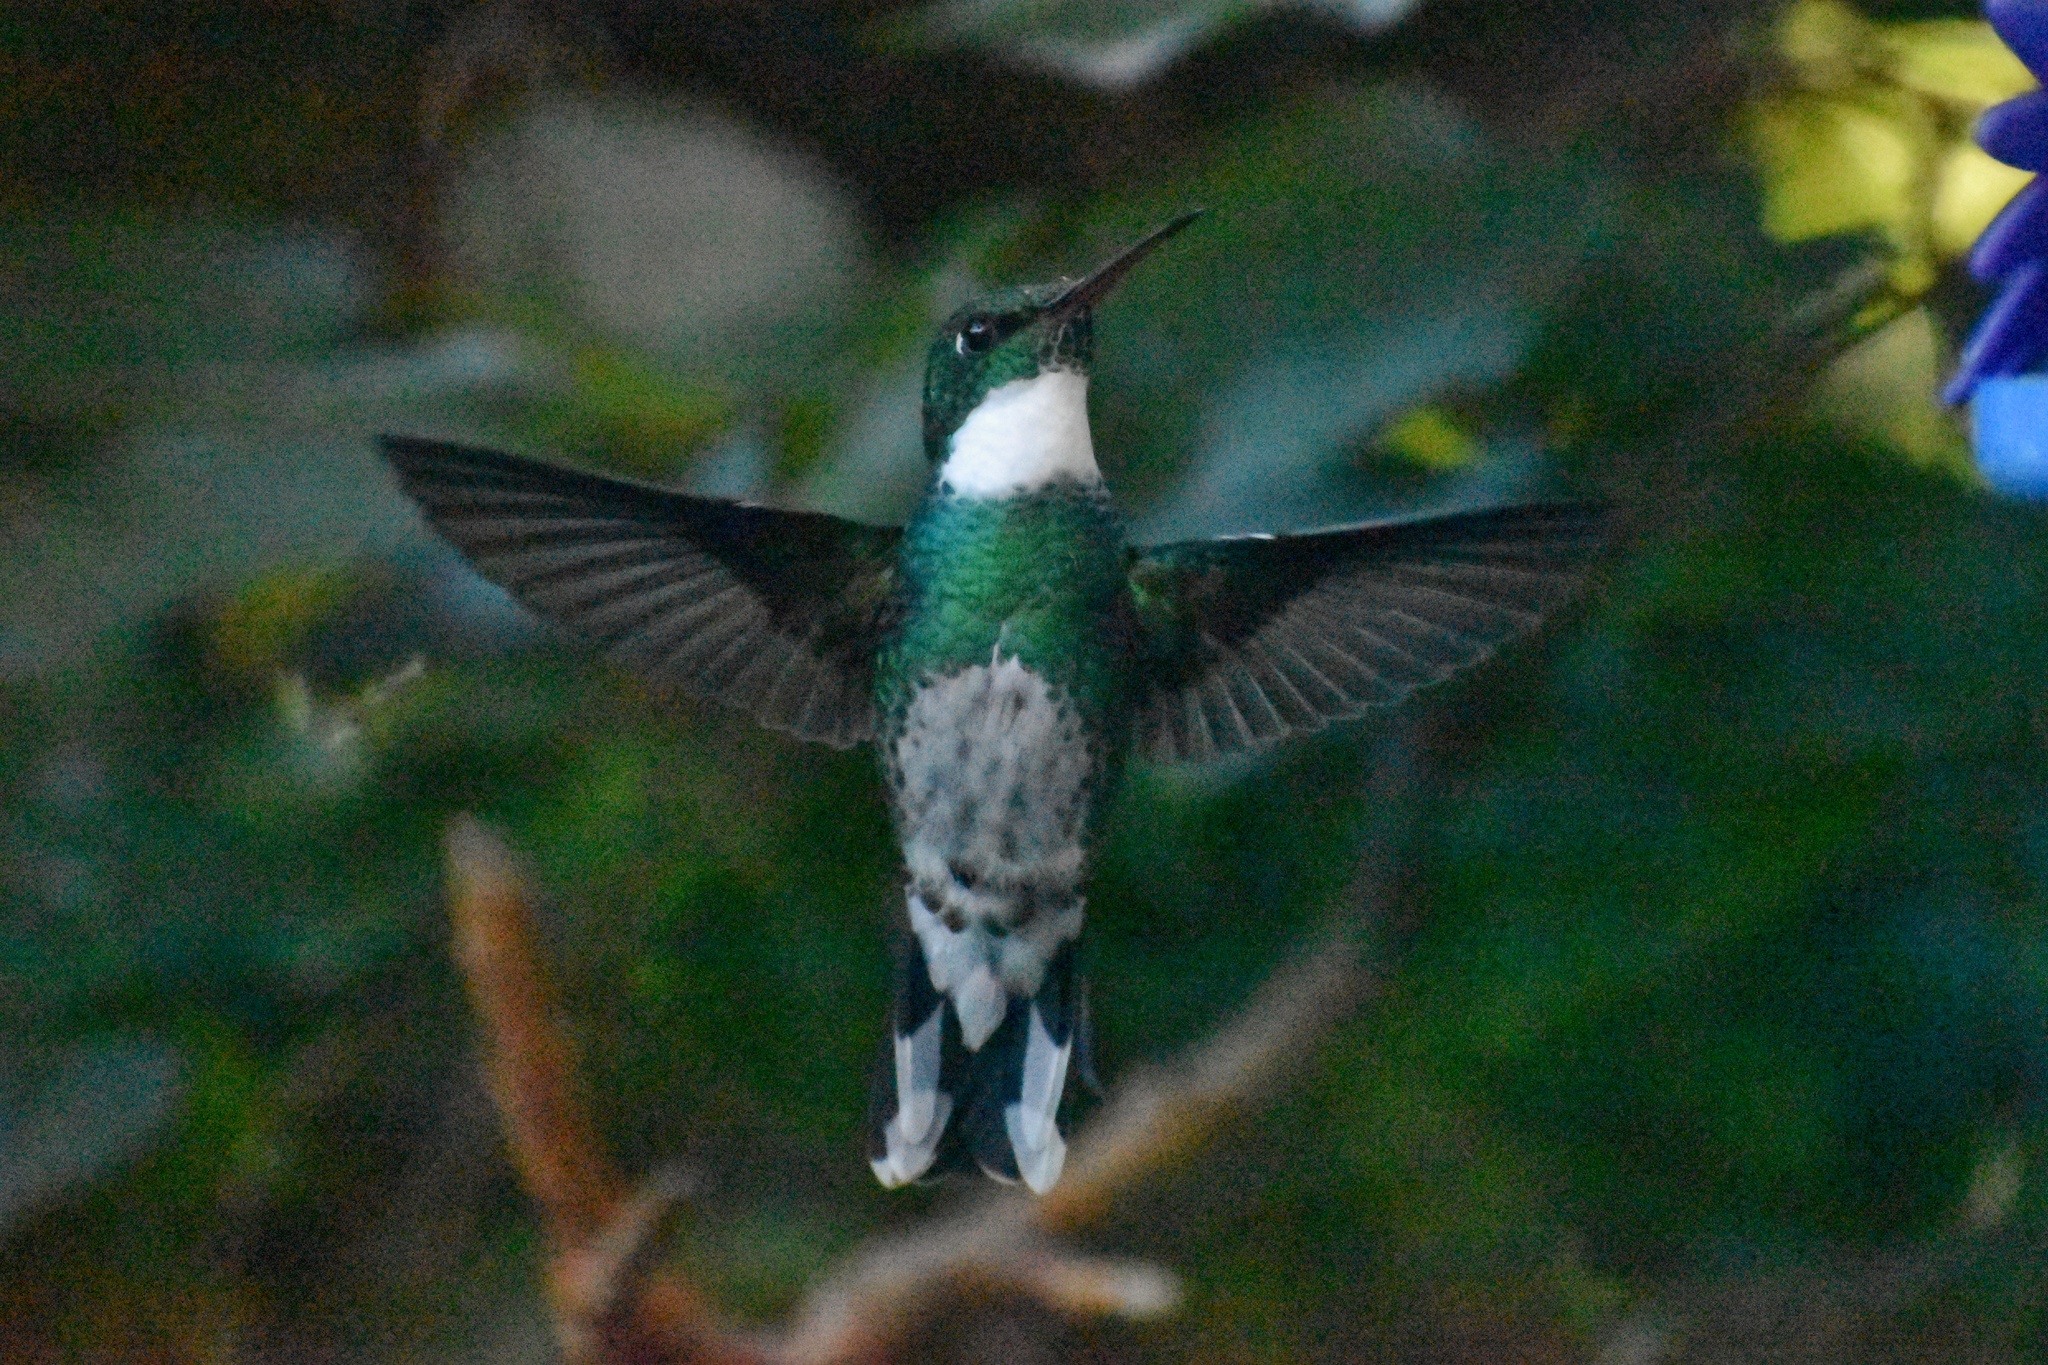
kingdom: Animalia
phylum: Chordata
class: Aves
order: Apodiformes
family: Trochilidae
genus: Leucochloris
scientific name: Leucochloris albicollis
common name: White-throated hummingbird
